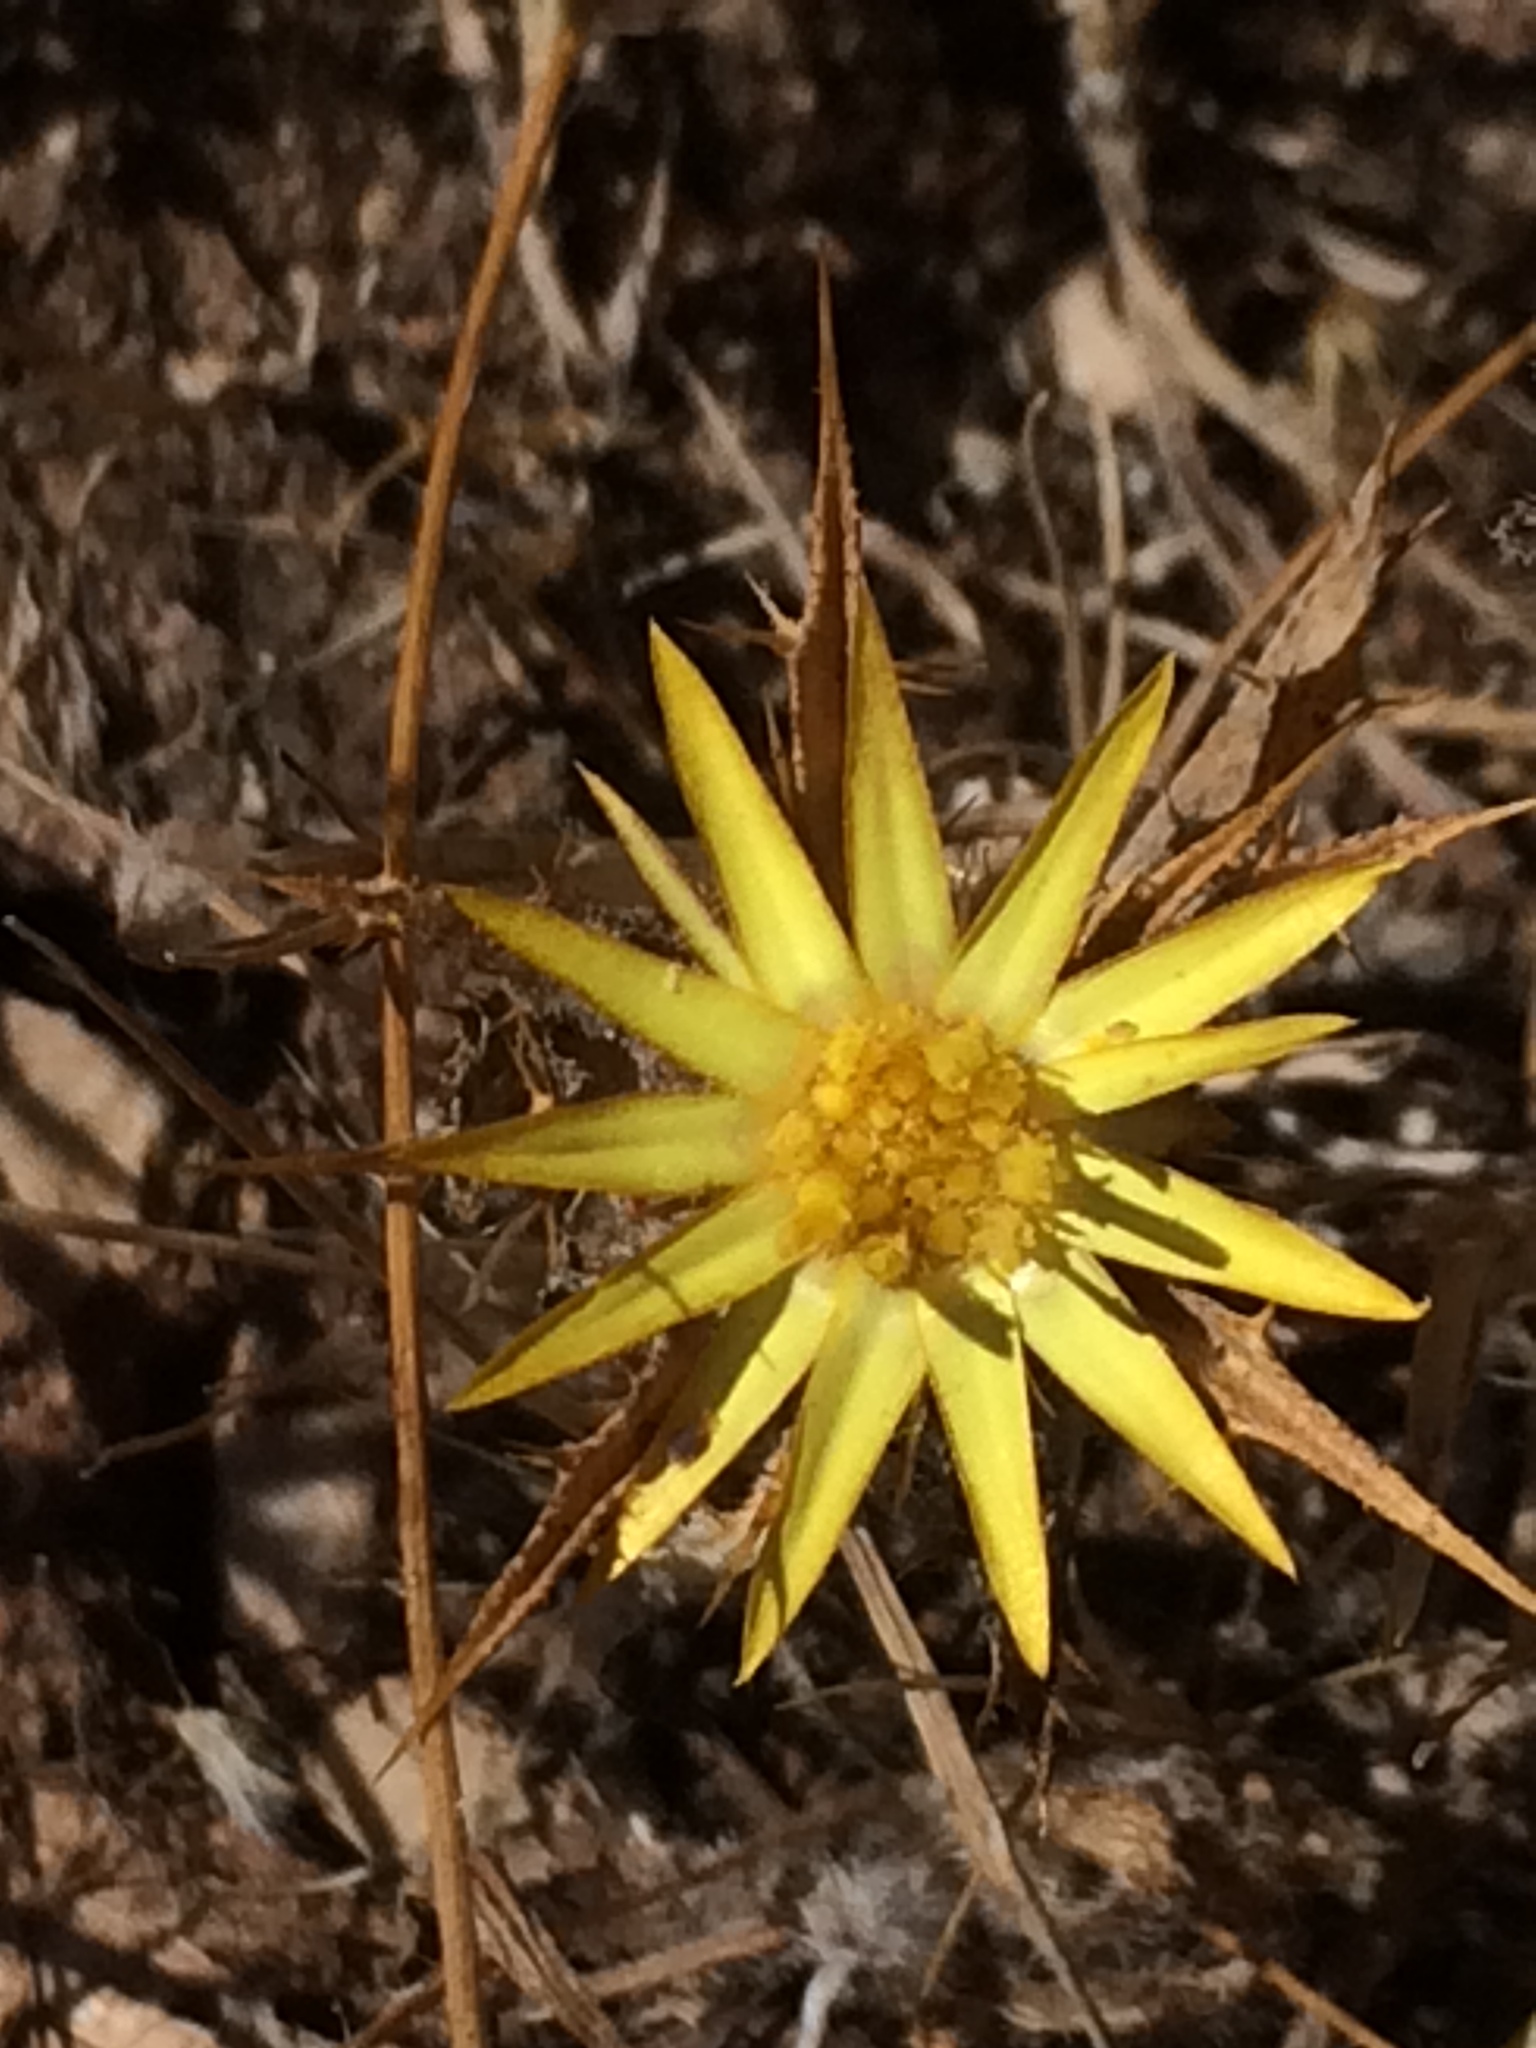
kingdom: Plantae
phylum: Tracheophyta
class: Magnoliopsida
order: Asterales
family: Asteraceae
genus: Carlina
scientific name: Carlina racemosa
